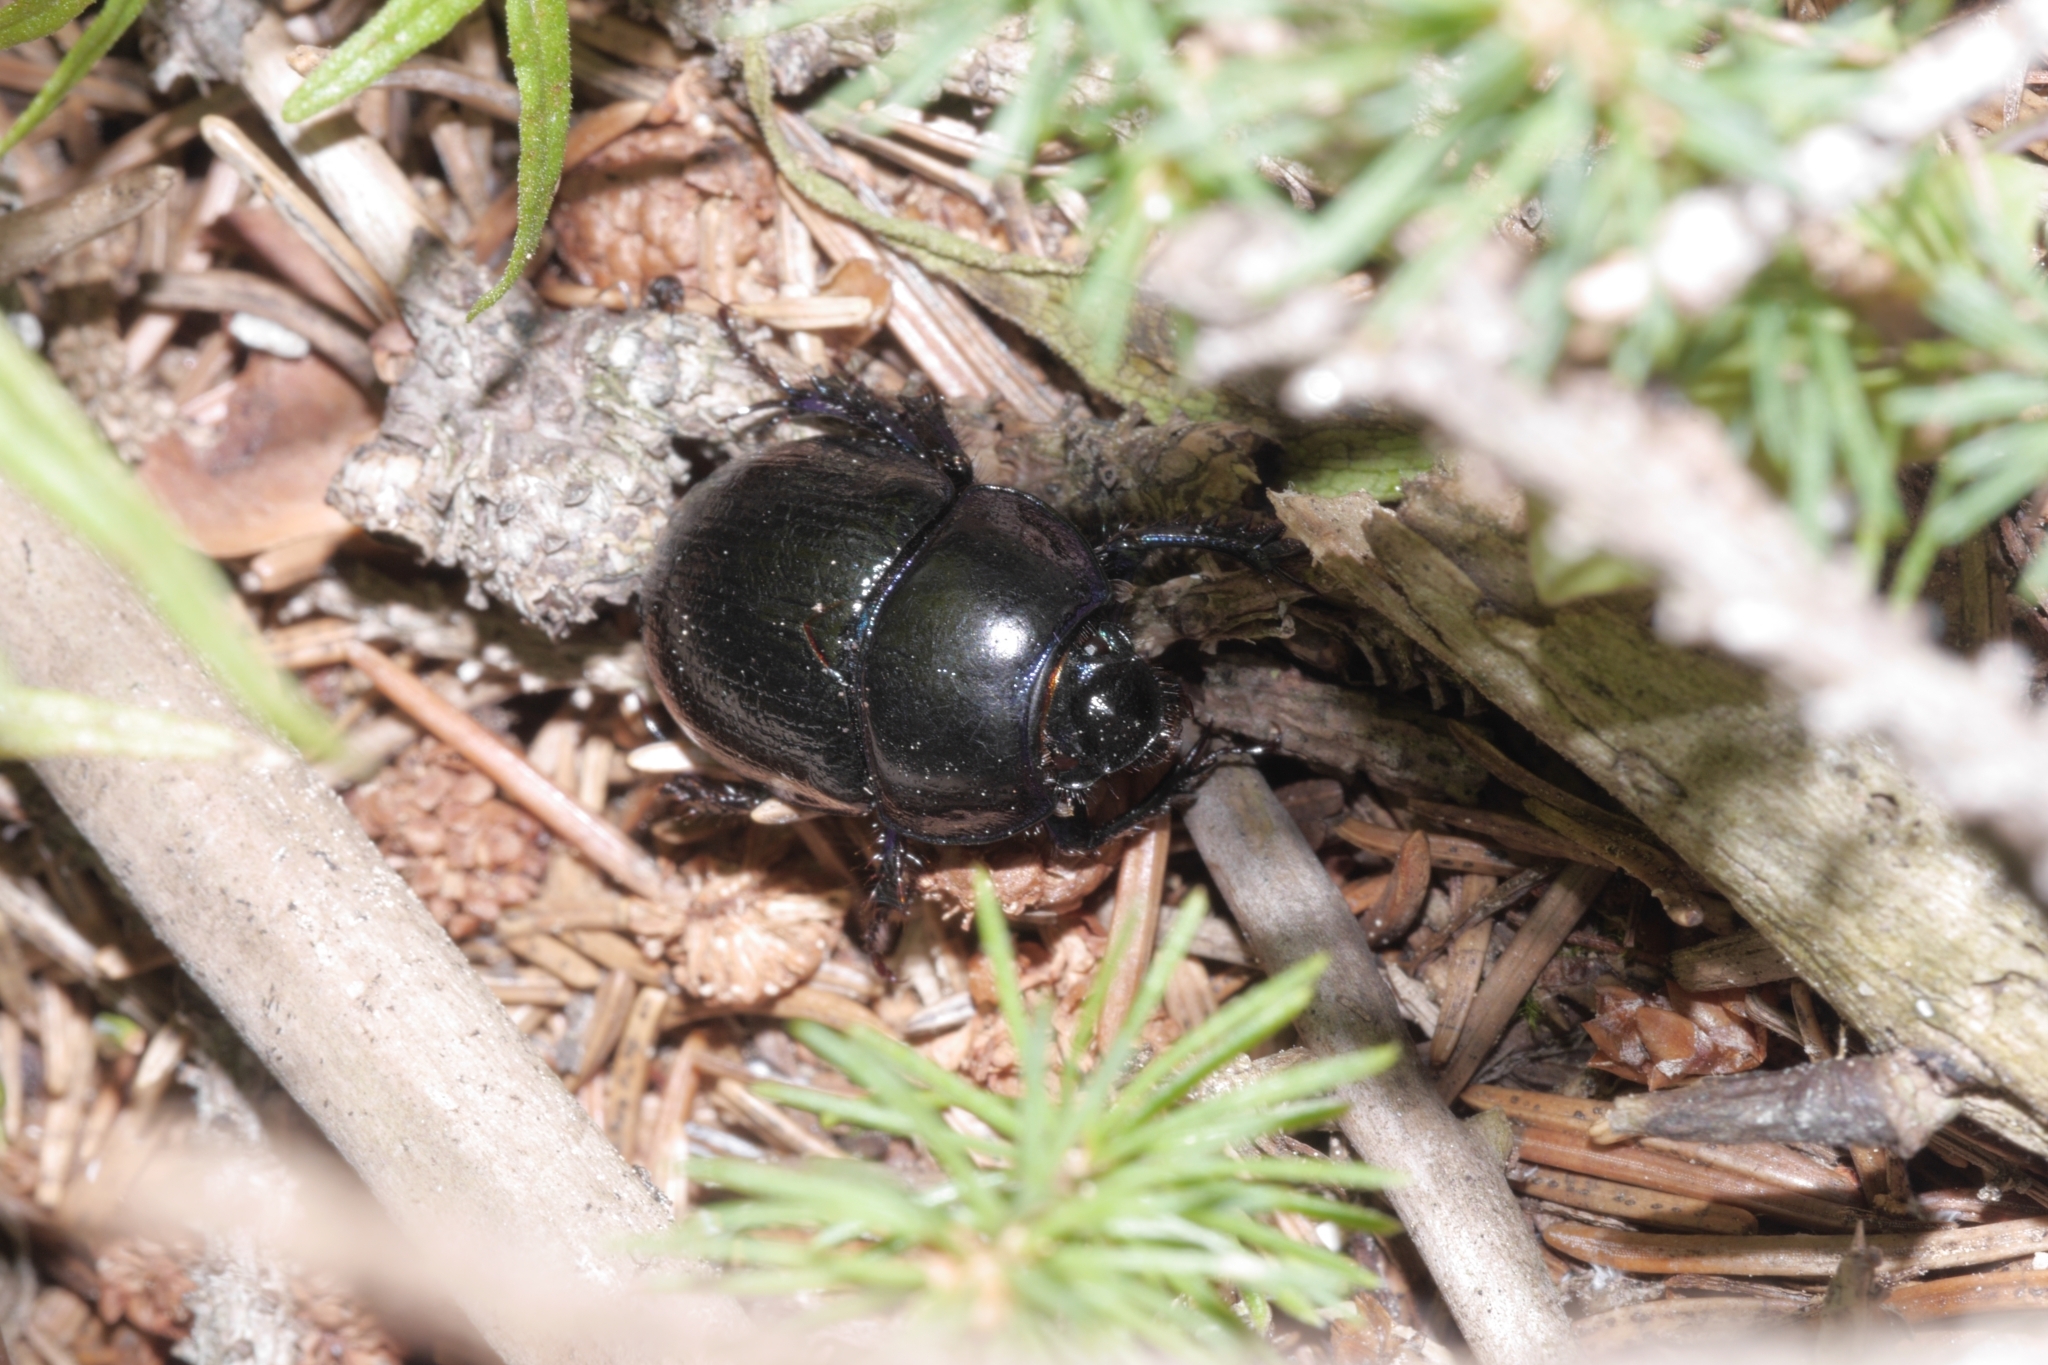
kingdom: Animalia
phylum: Arthropoda
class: Insecta
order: Coleoptera
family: Geotrupidae
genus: Anoplotrupes
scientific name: Anoplotrupes stercorosus
